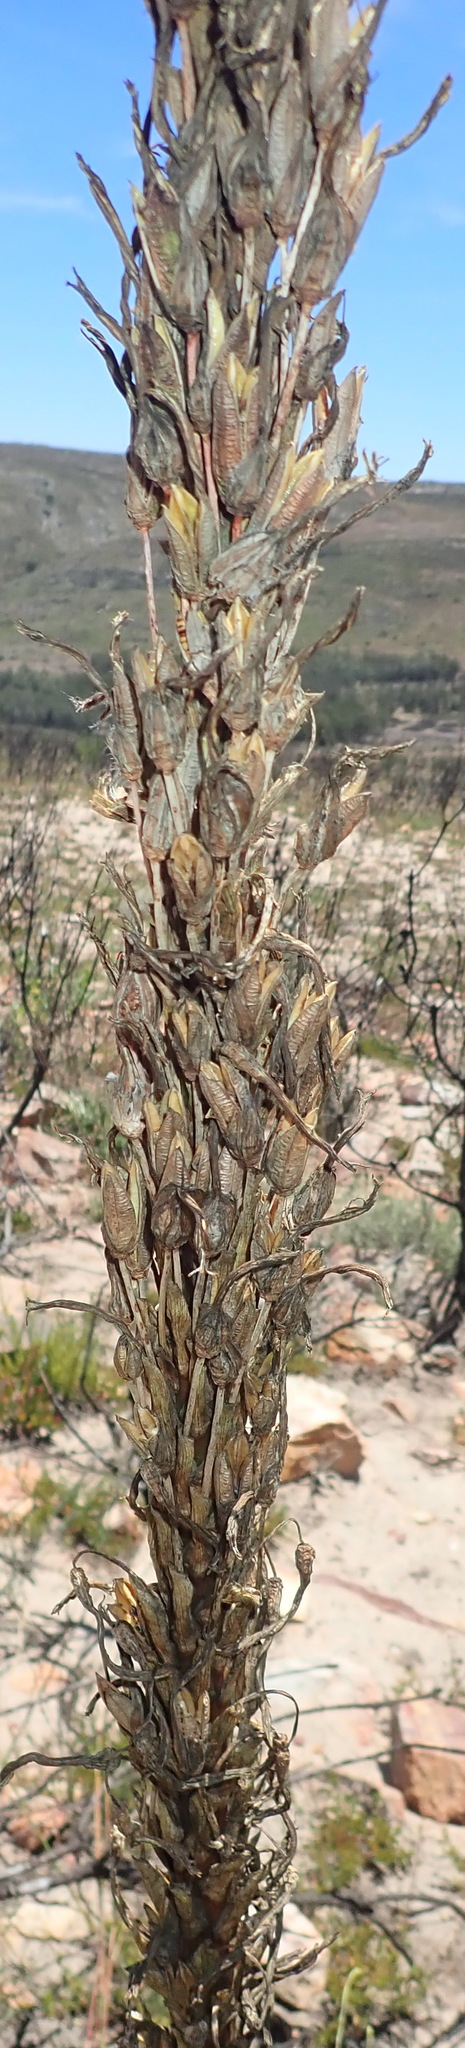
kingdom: Plantae
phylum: Tracheophyta
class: Liliopsida
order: Asparagales
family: Asphodelaceae
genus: Aloe
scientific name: Aloe lineata
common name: Lined red-spined aloe
